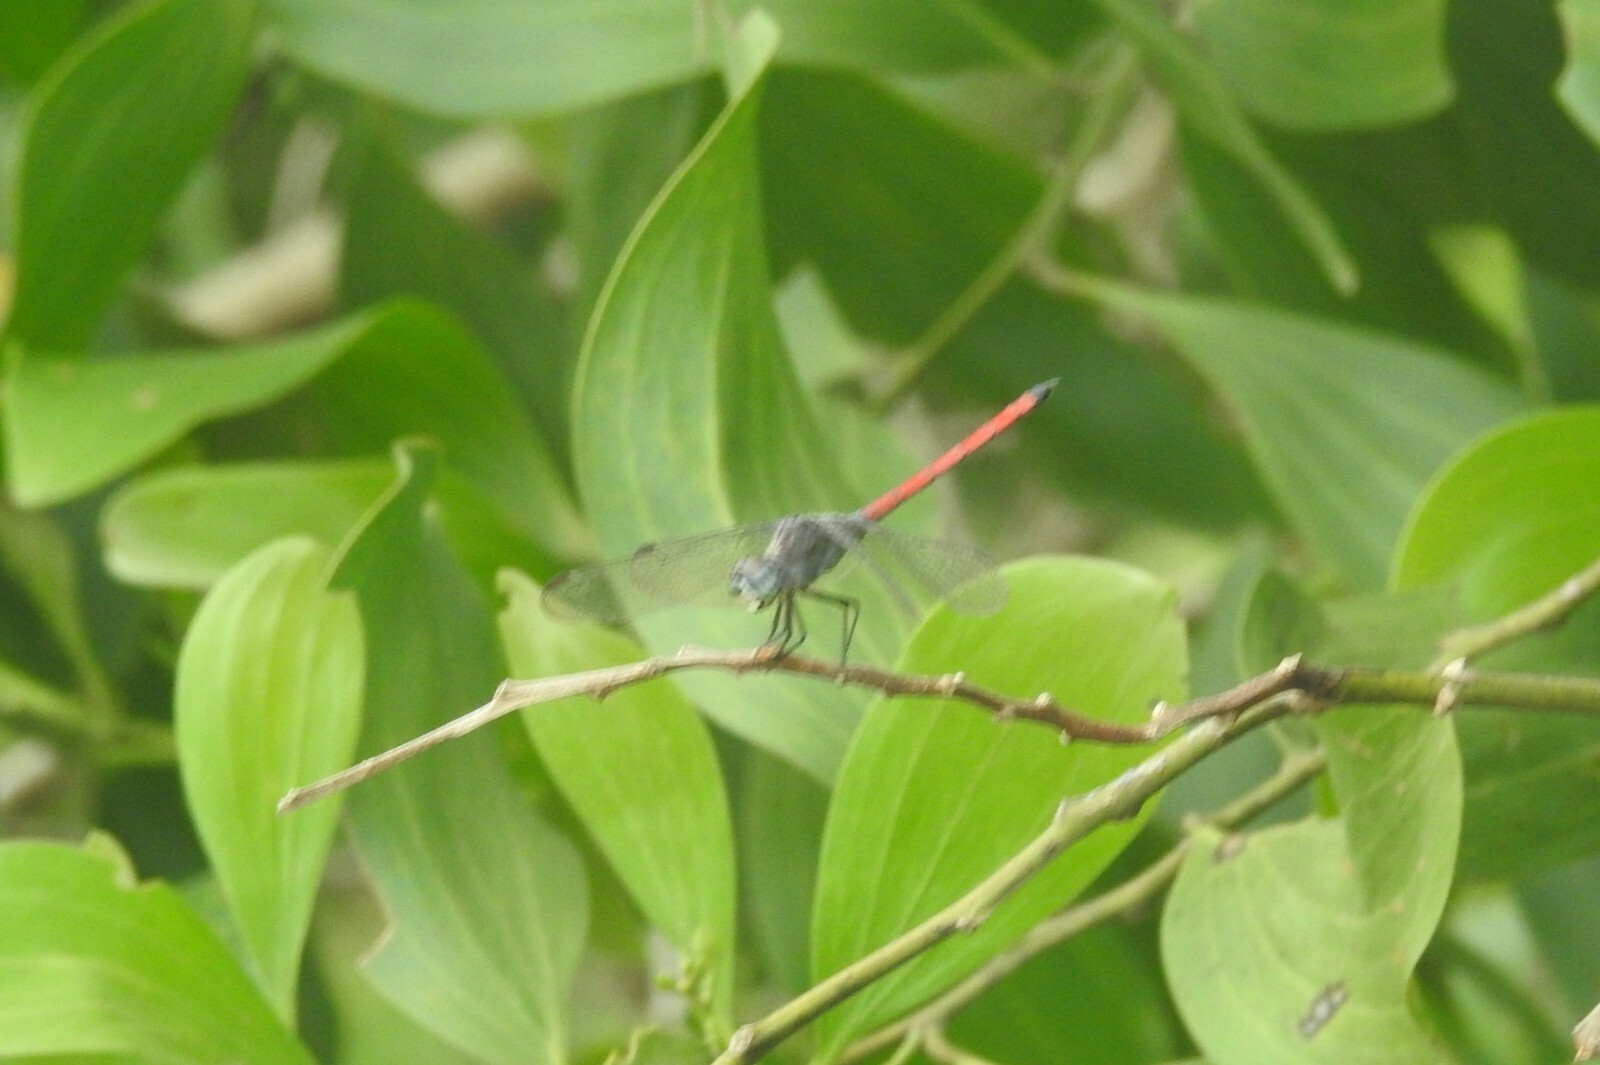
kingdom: Animalia
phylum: Arthropoda
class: Insecta
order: Odonata
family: Libellulidae
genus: Lathrecista
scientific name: Lathrecista asiatica
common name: Scarlet grenadier
